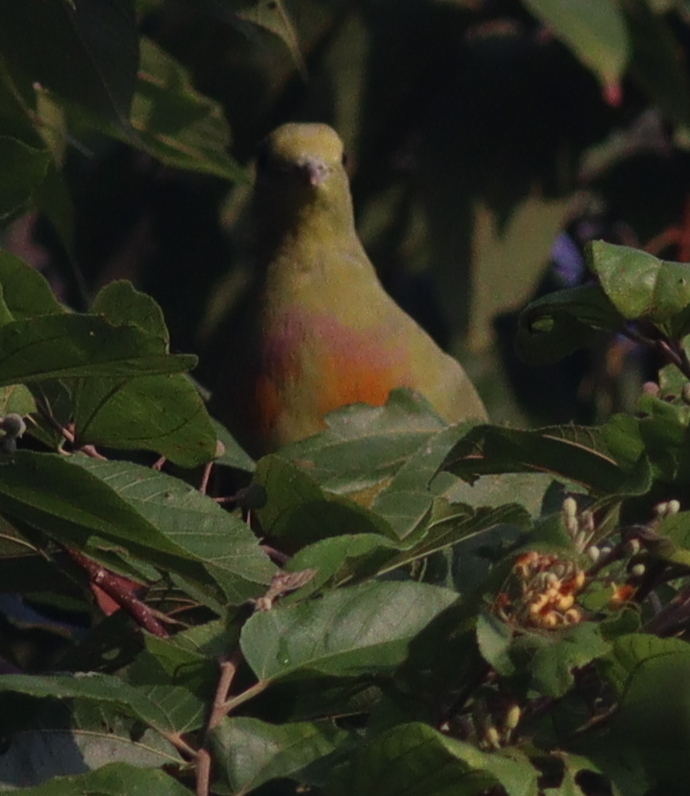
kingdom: Animalia
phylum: Chordata
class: Aves
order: Columbiformes
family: Columbidae
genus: Treron
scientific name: Treron vernans
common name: Pink-necked green pigeon
